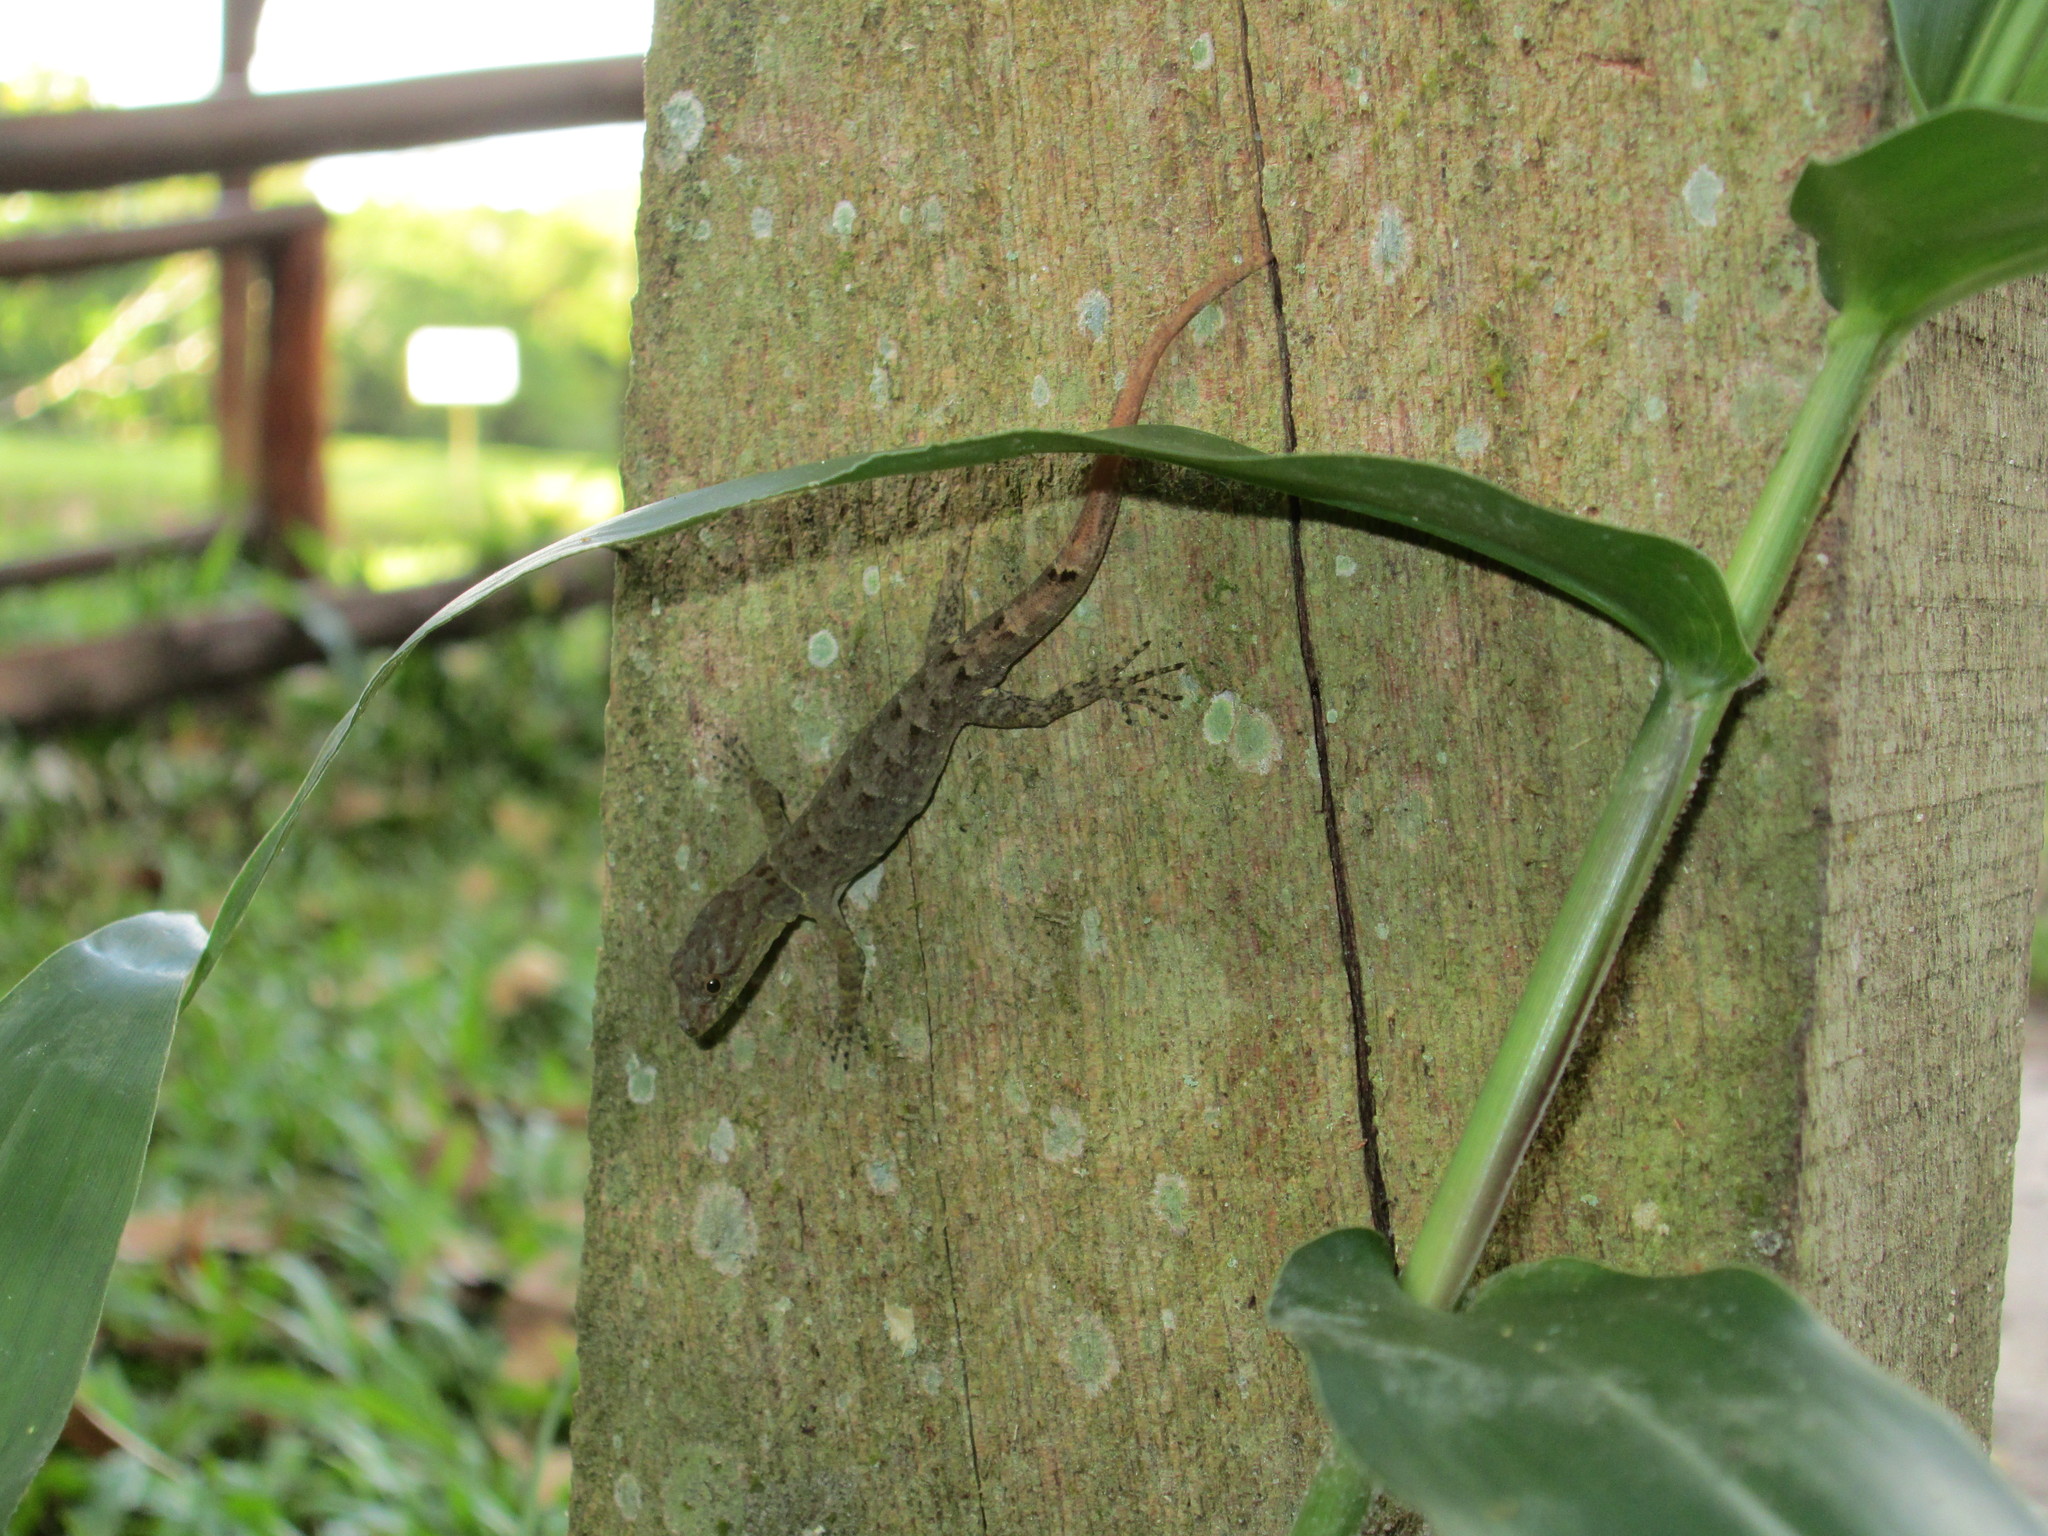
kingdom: Animalia
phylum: Chordata
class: Squamata
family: Sphaerodactylidae
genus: Gonatodes
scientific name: Gonatodes humeralis
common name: South american clawed gecko
